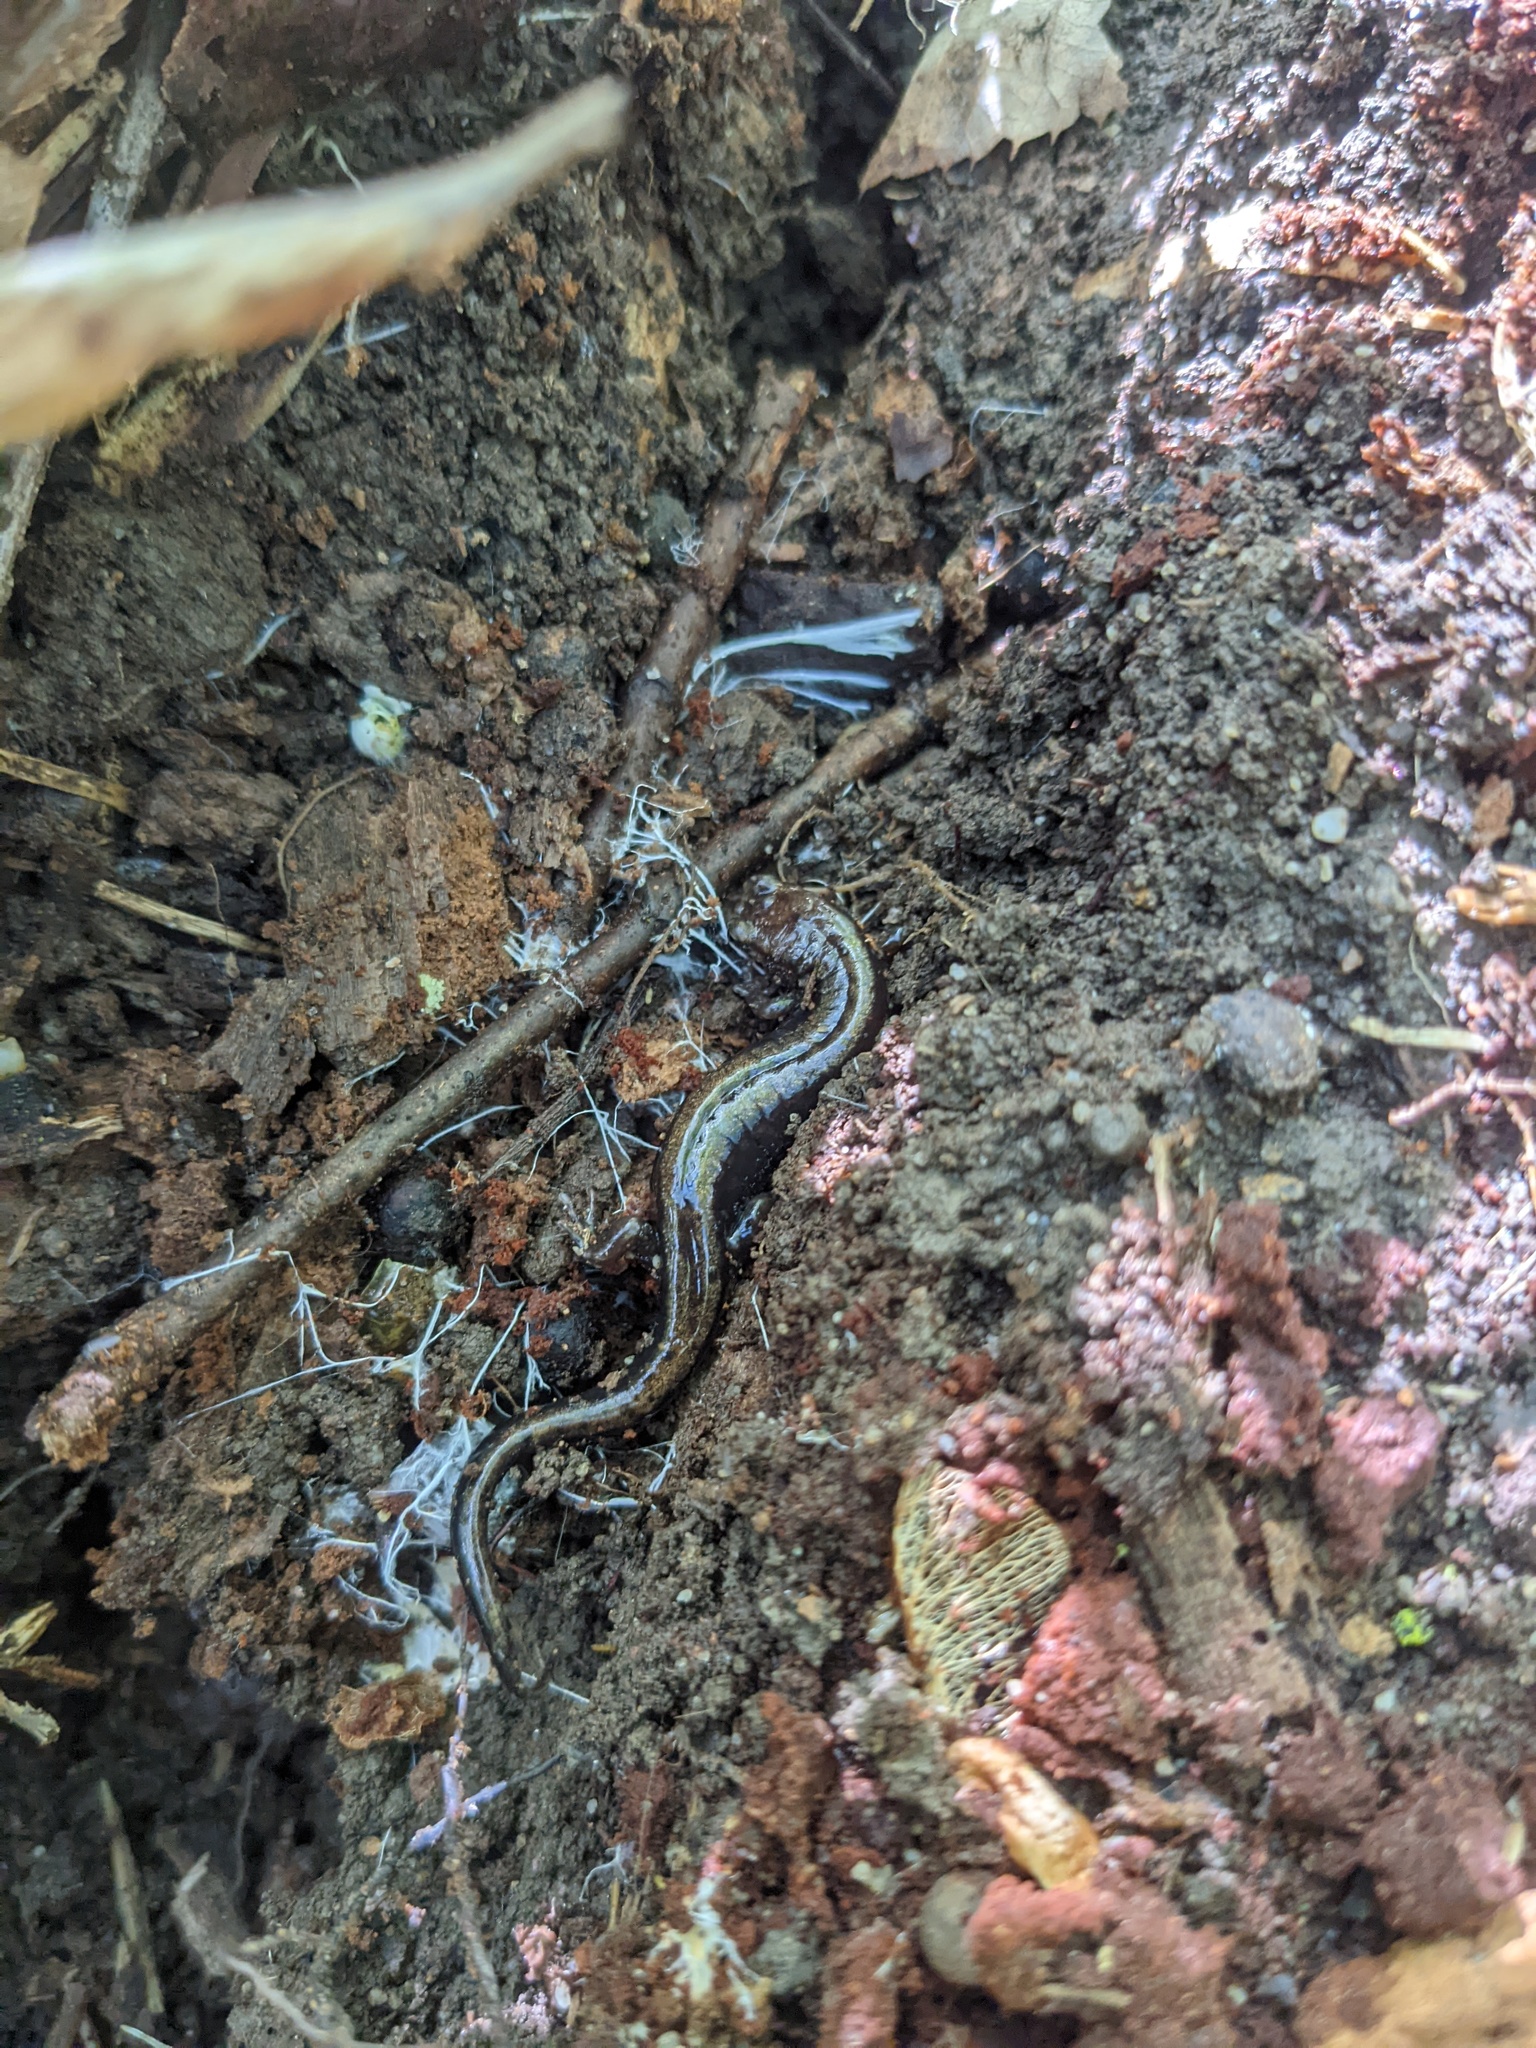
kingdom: Animalia
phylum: Chordata
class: Amphibia
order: Caudata
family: Plethodontidae
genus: Desmognathus
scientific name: Desmognathus ochrophaeus
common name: Allegheny mountain dusky salamander
